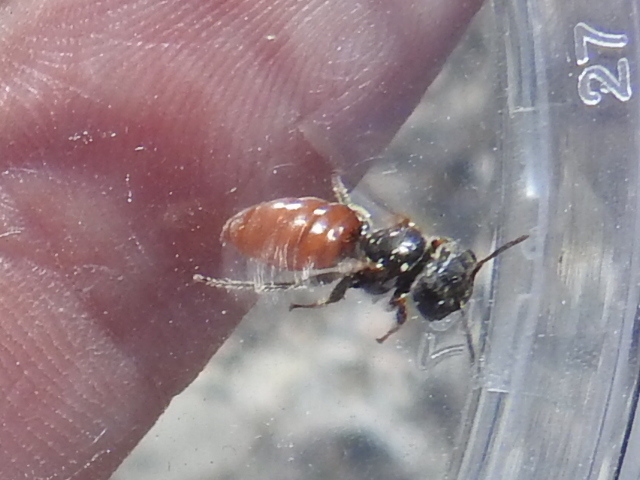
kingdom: Animalia
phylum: Arthropoda
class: Insecta
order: Hymenoptera
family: Andrenidae
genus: Macrotera
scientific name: Macrotera
